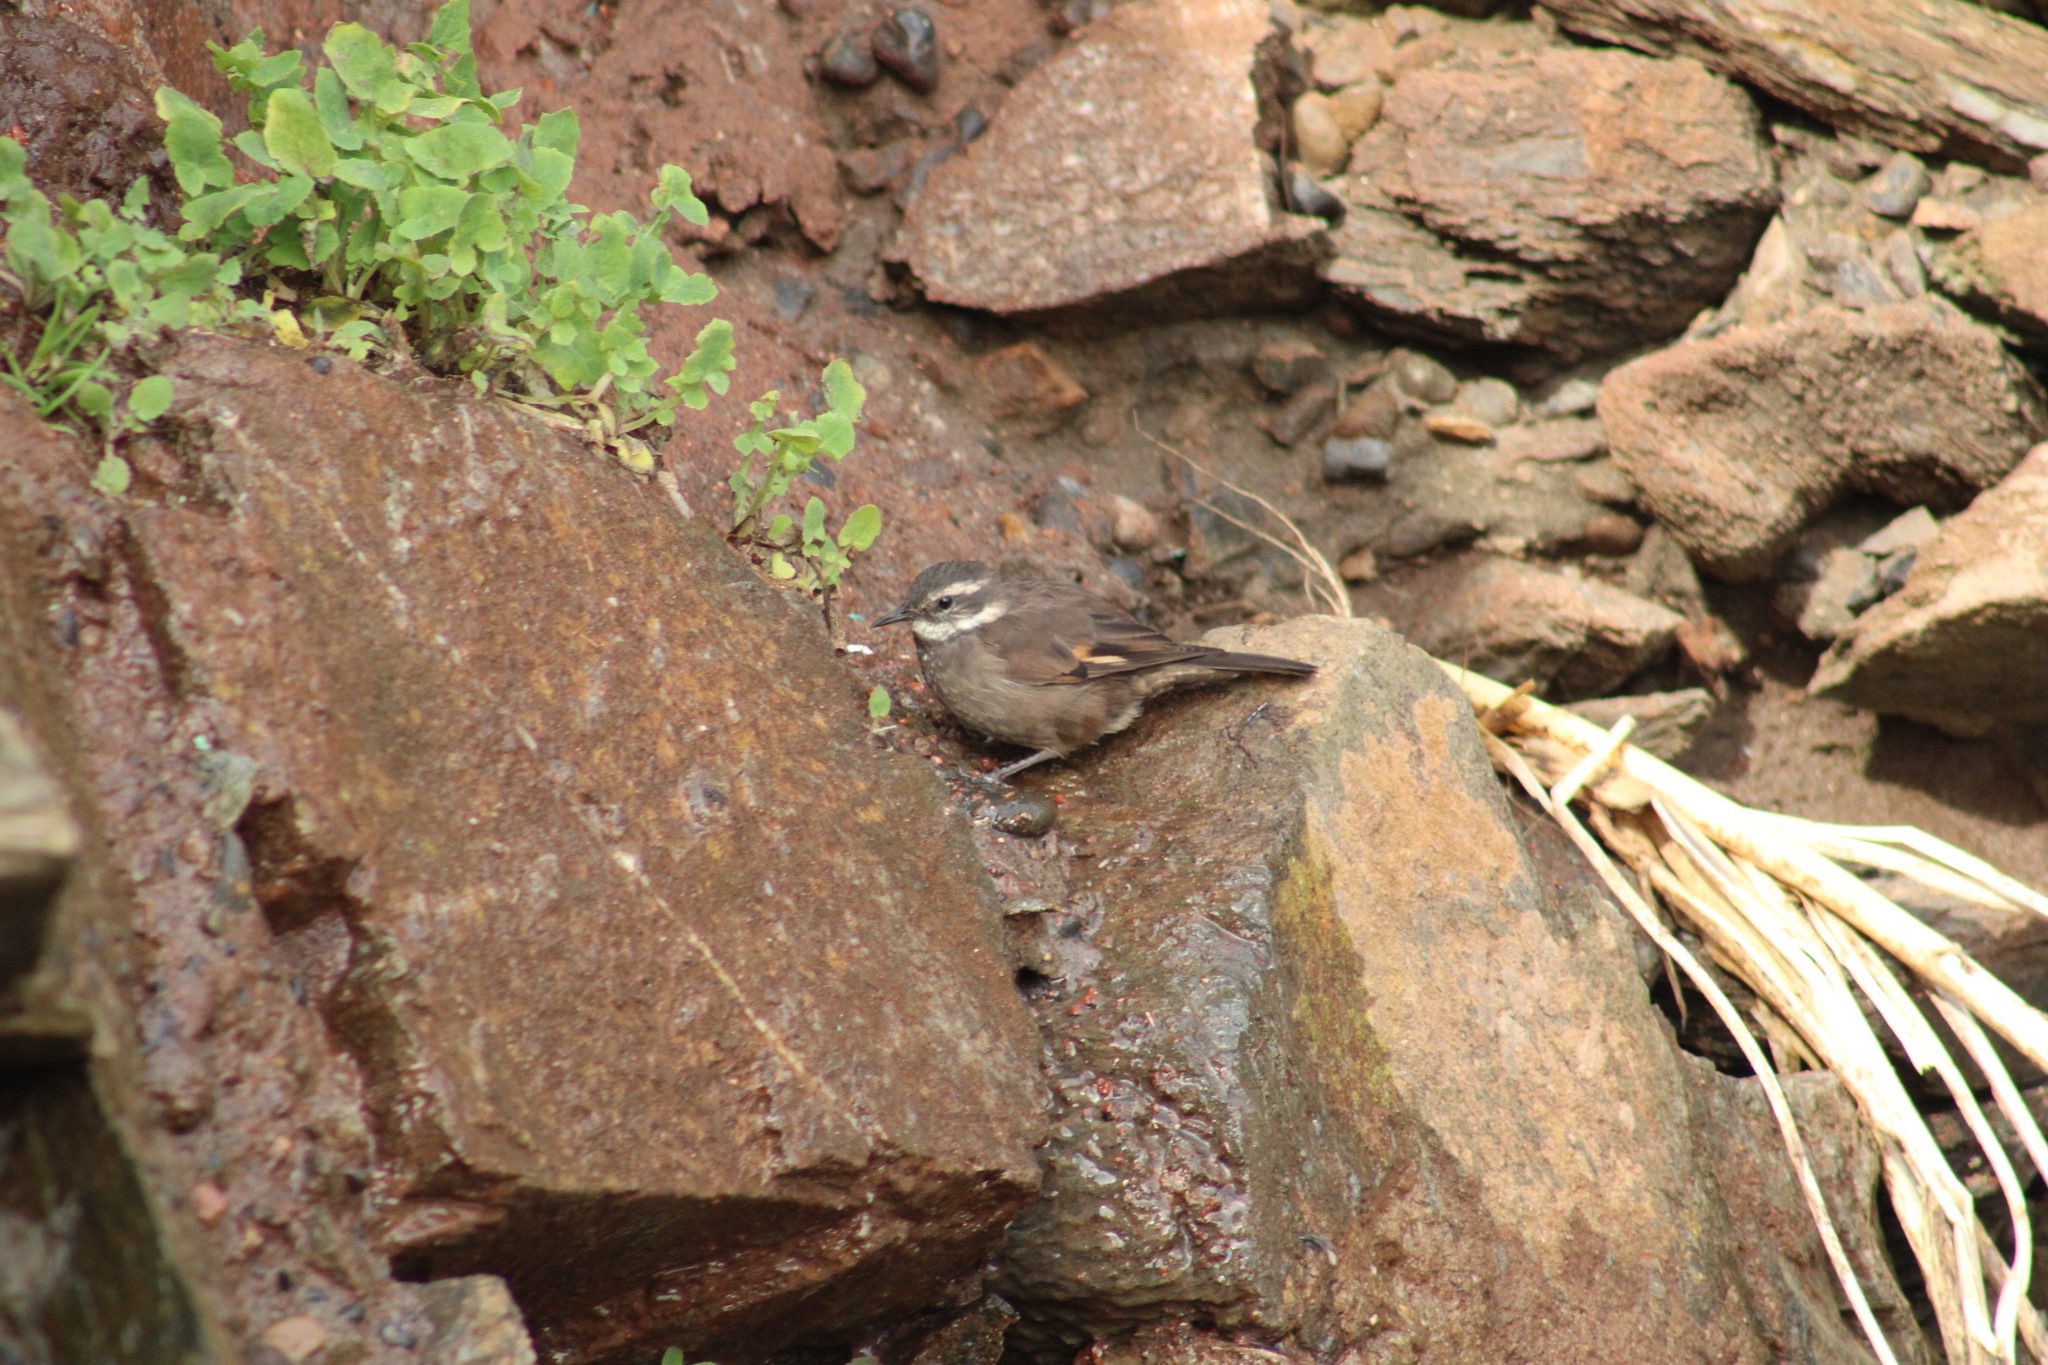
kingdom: Animalia
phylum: Chordata
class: Aves
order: Passeriformes
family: Furnariidae
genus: Cinclodes
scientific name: Cinclodes oustaleti
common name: Grey-flanked cinclodes
